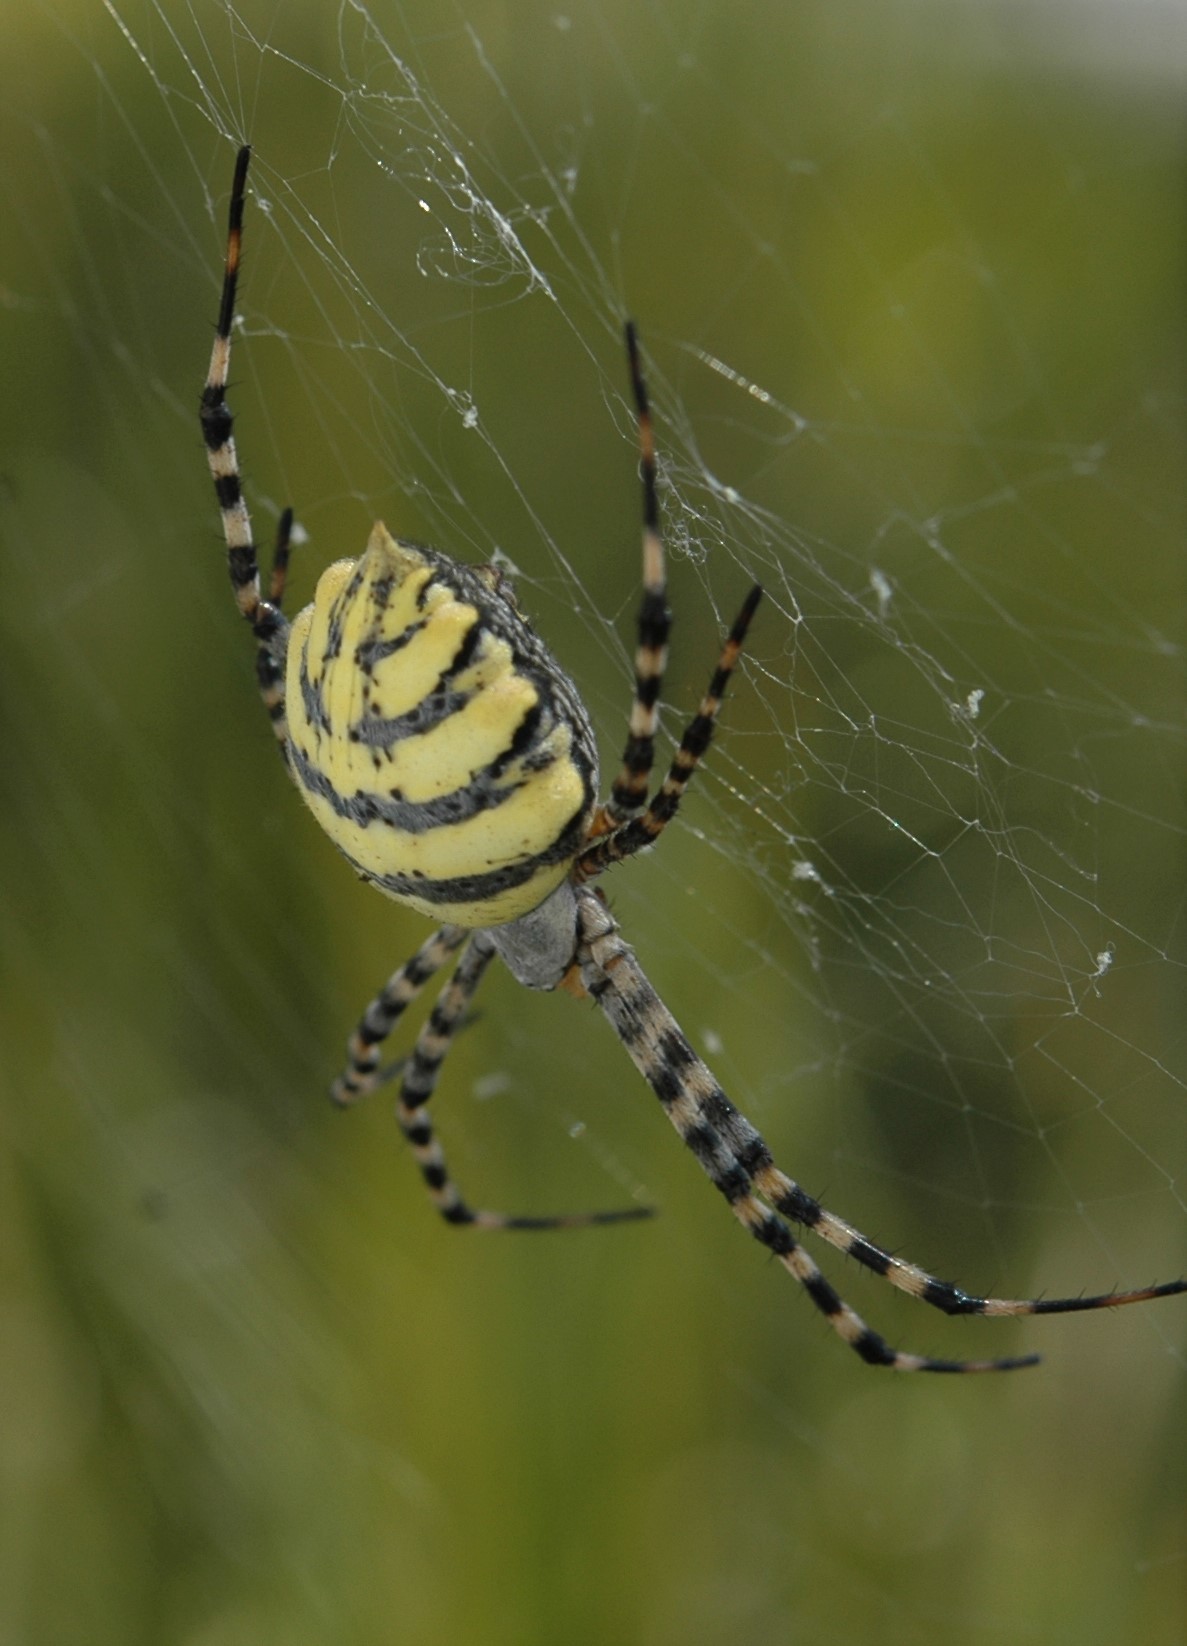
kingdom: Animalia
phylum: Arthropoda
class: Arachnida
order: Araneae
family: Araneidae
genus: Argiope
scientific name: Argiope australis
